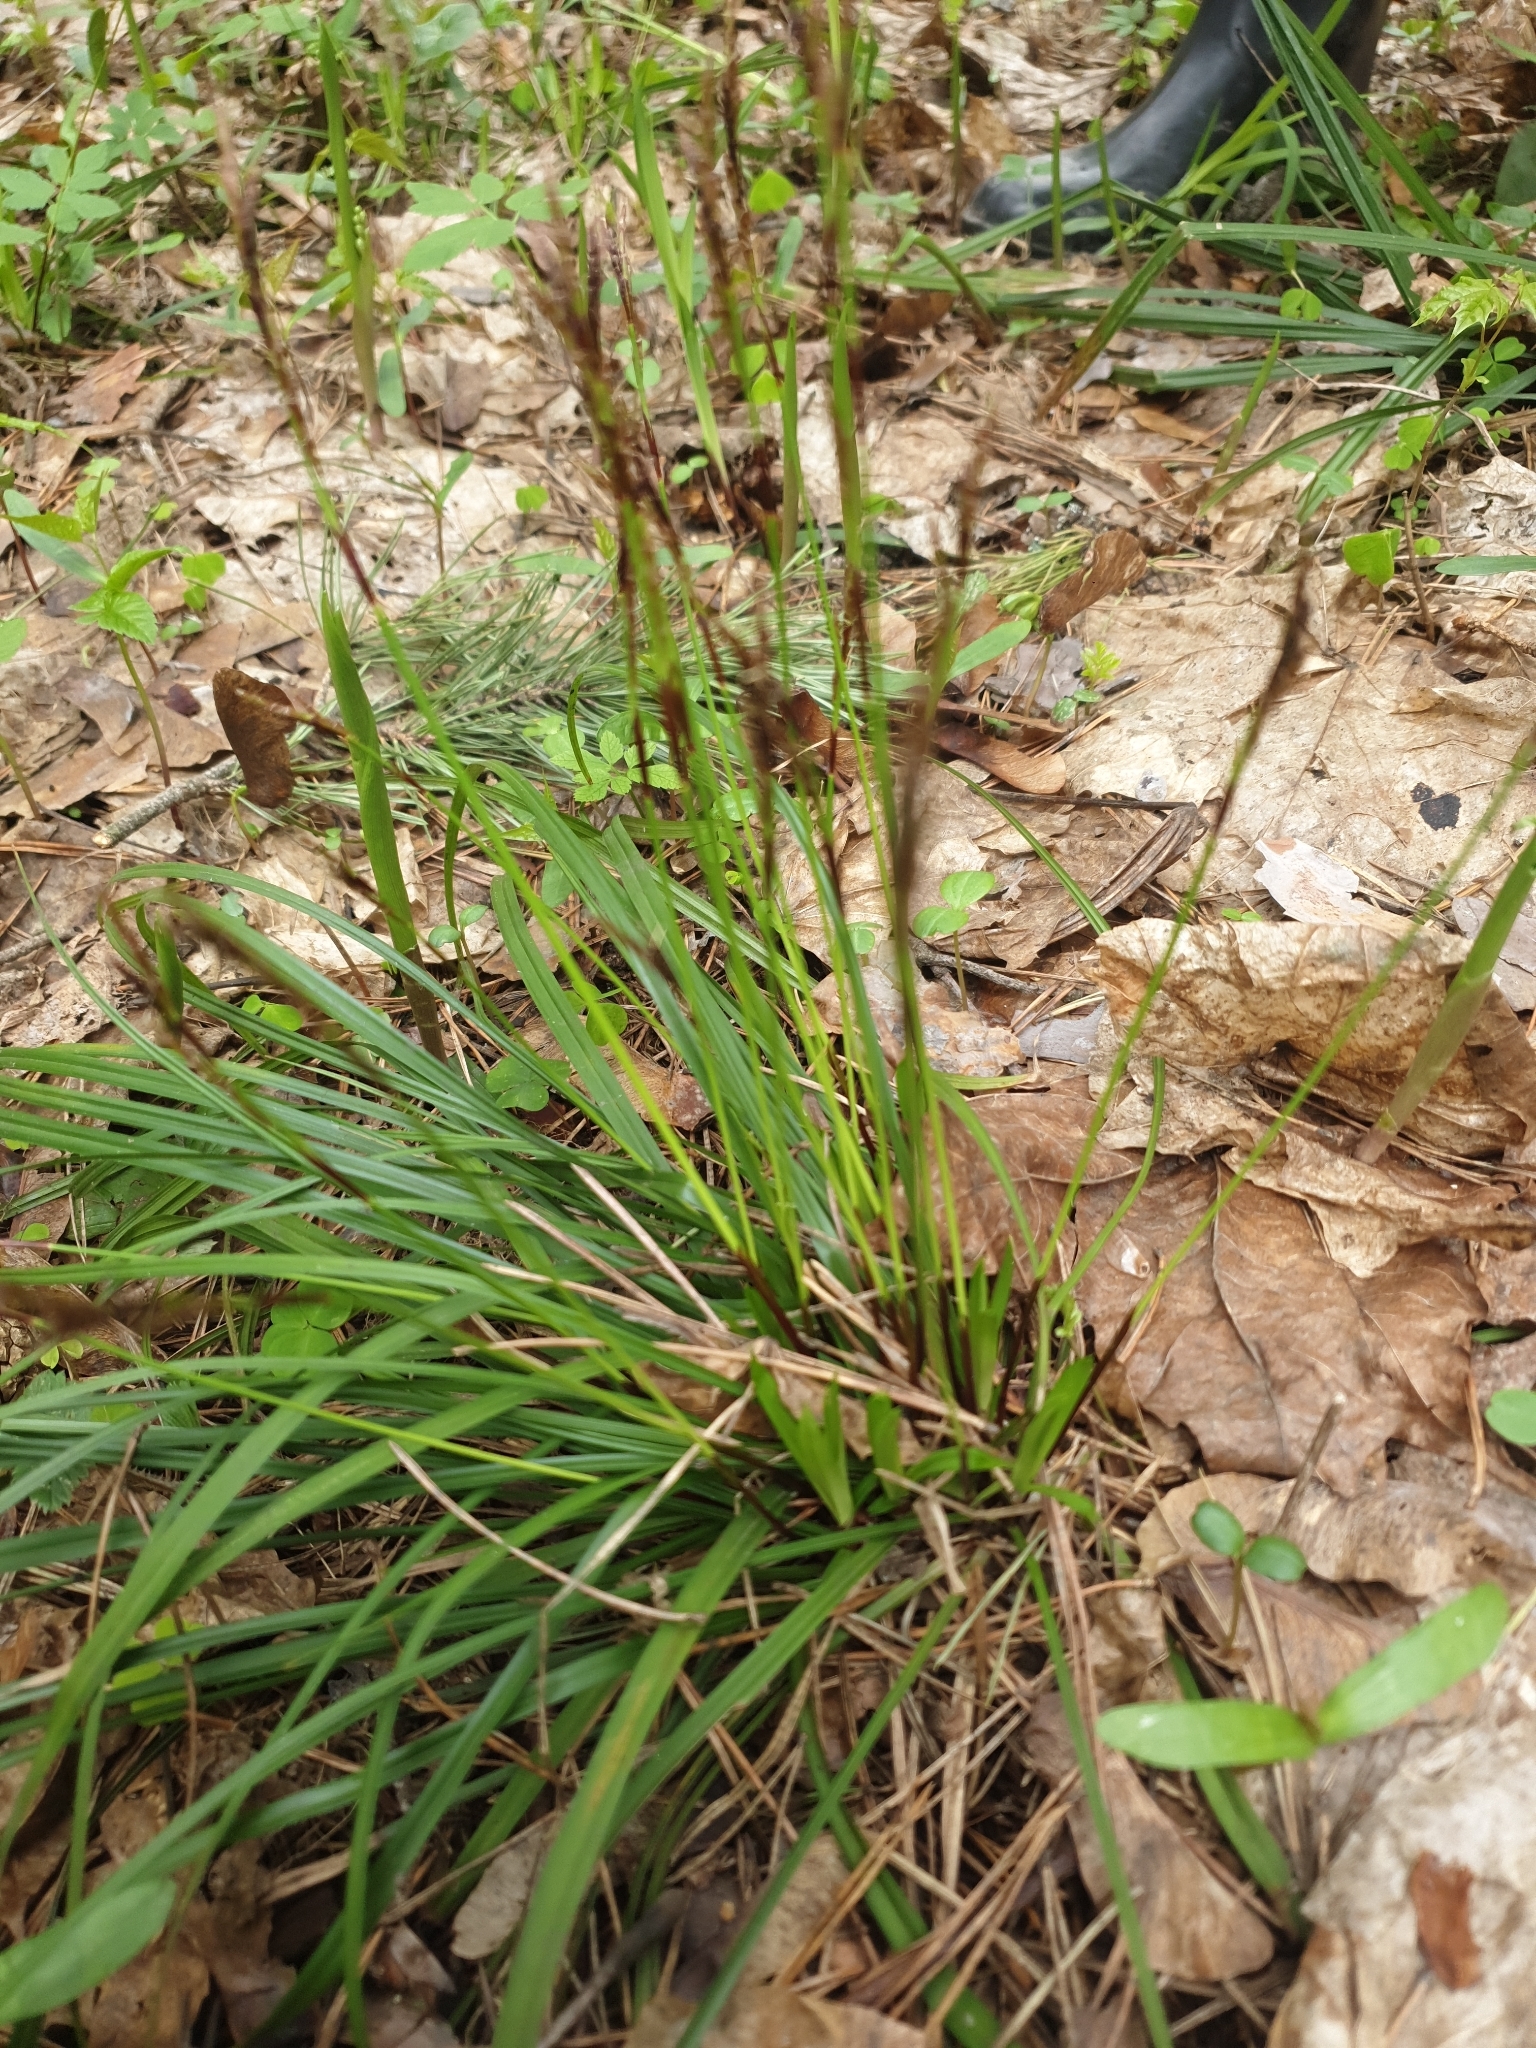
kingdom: Plantae
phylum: Tracheophyta
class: Liliopsida
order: Poales
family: Cyperaceae
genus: Carex
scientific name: Carex digitata
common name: Fingered sedge
